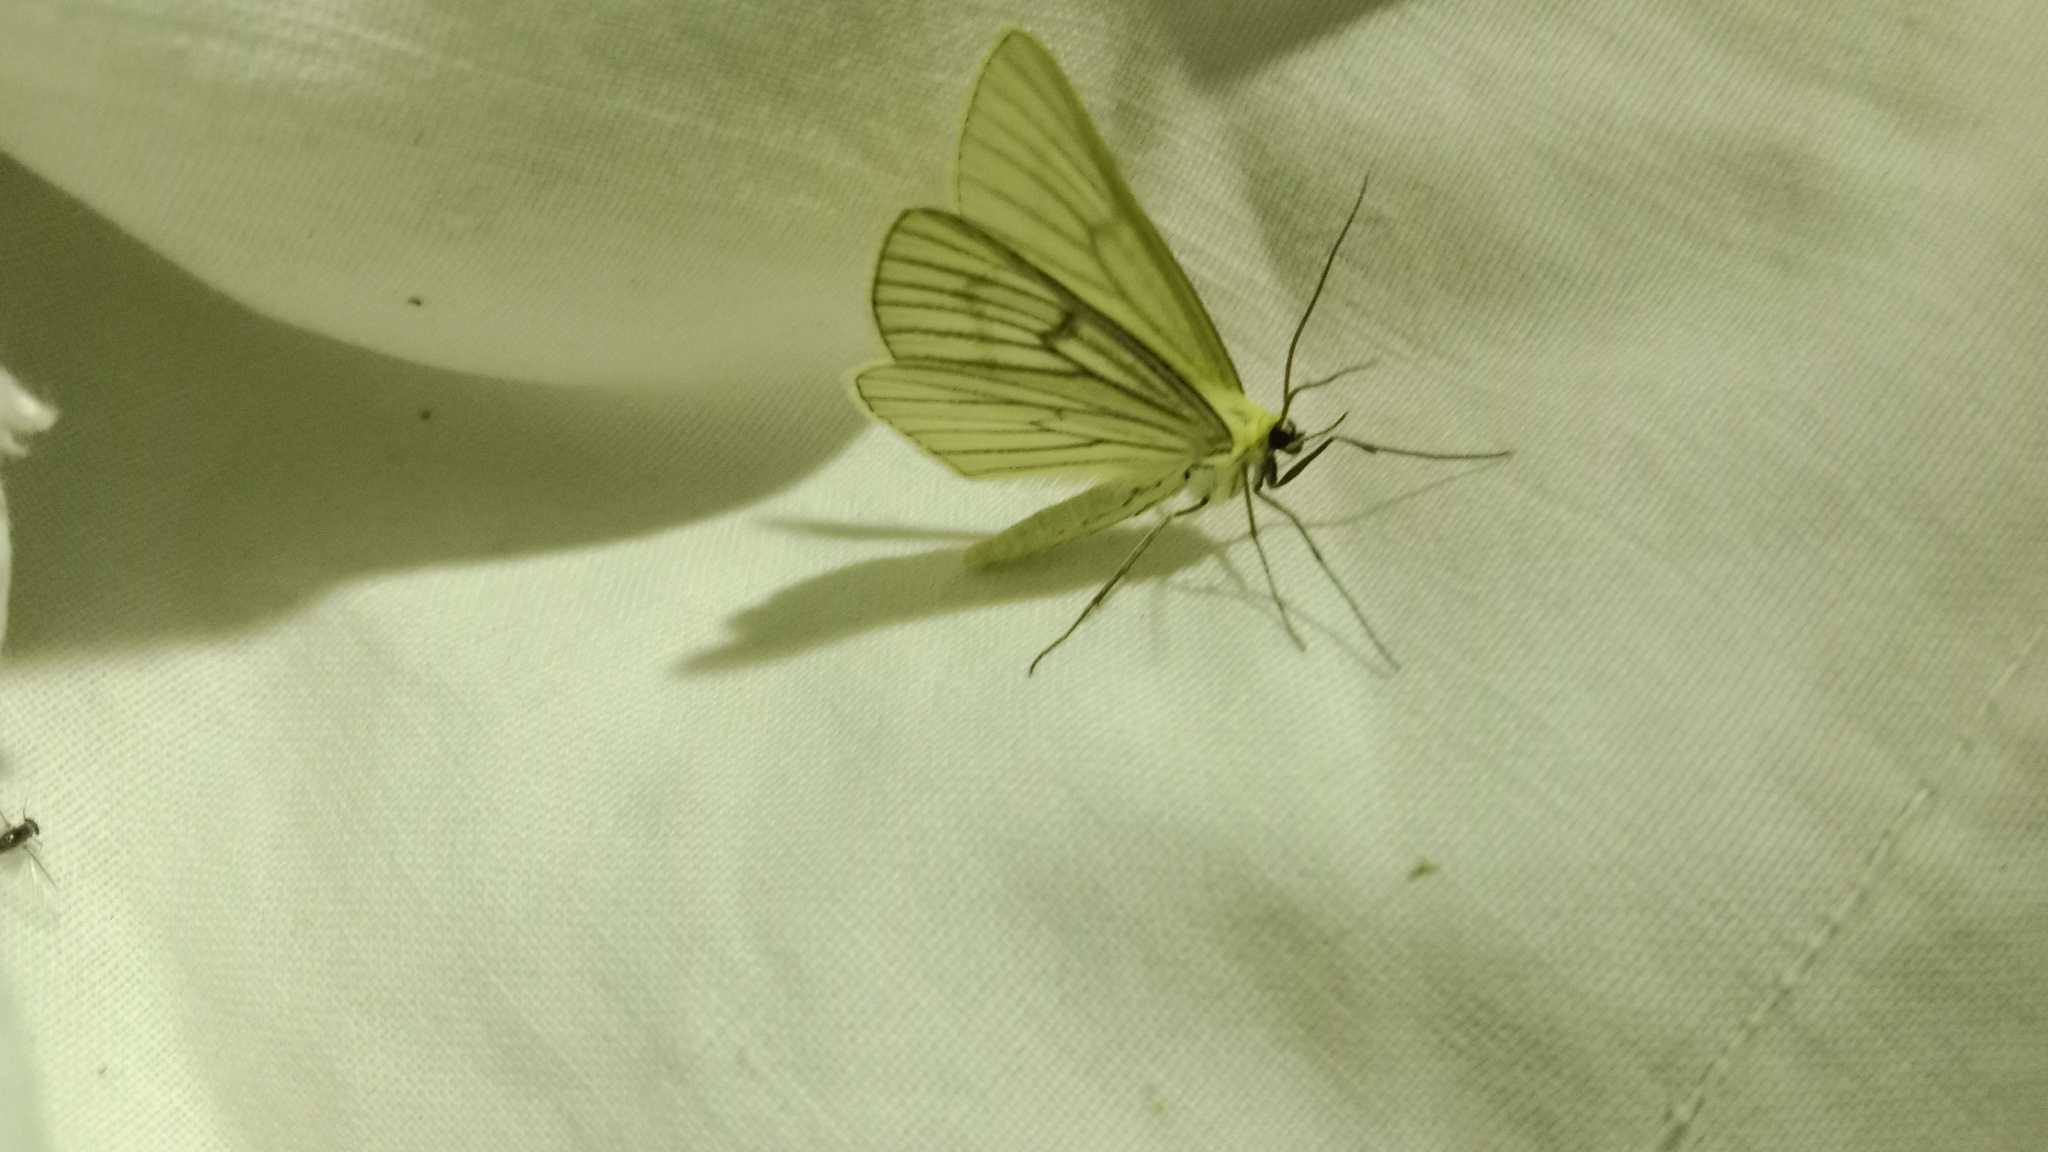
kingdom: Animalia
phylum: Arthropoda
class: Insecta
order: Lepidoptera
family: Geometridae
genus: Siona
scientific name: Siona lineata
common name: Black-veined moth
